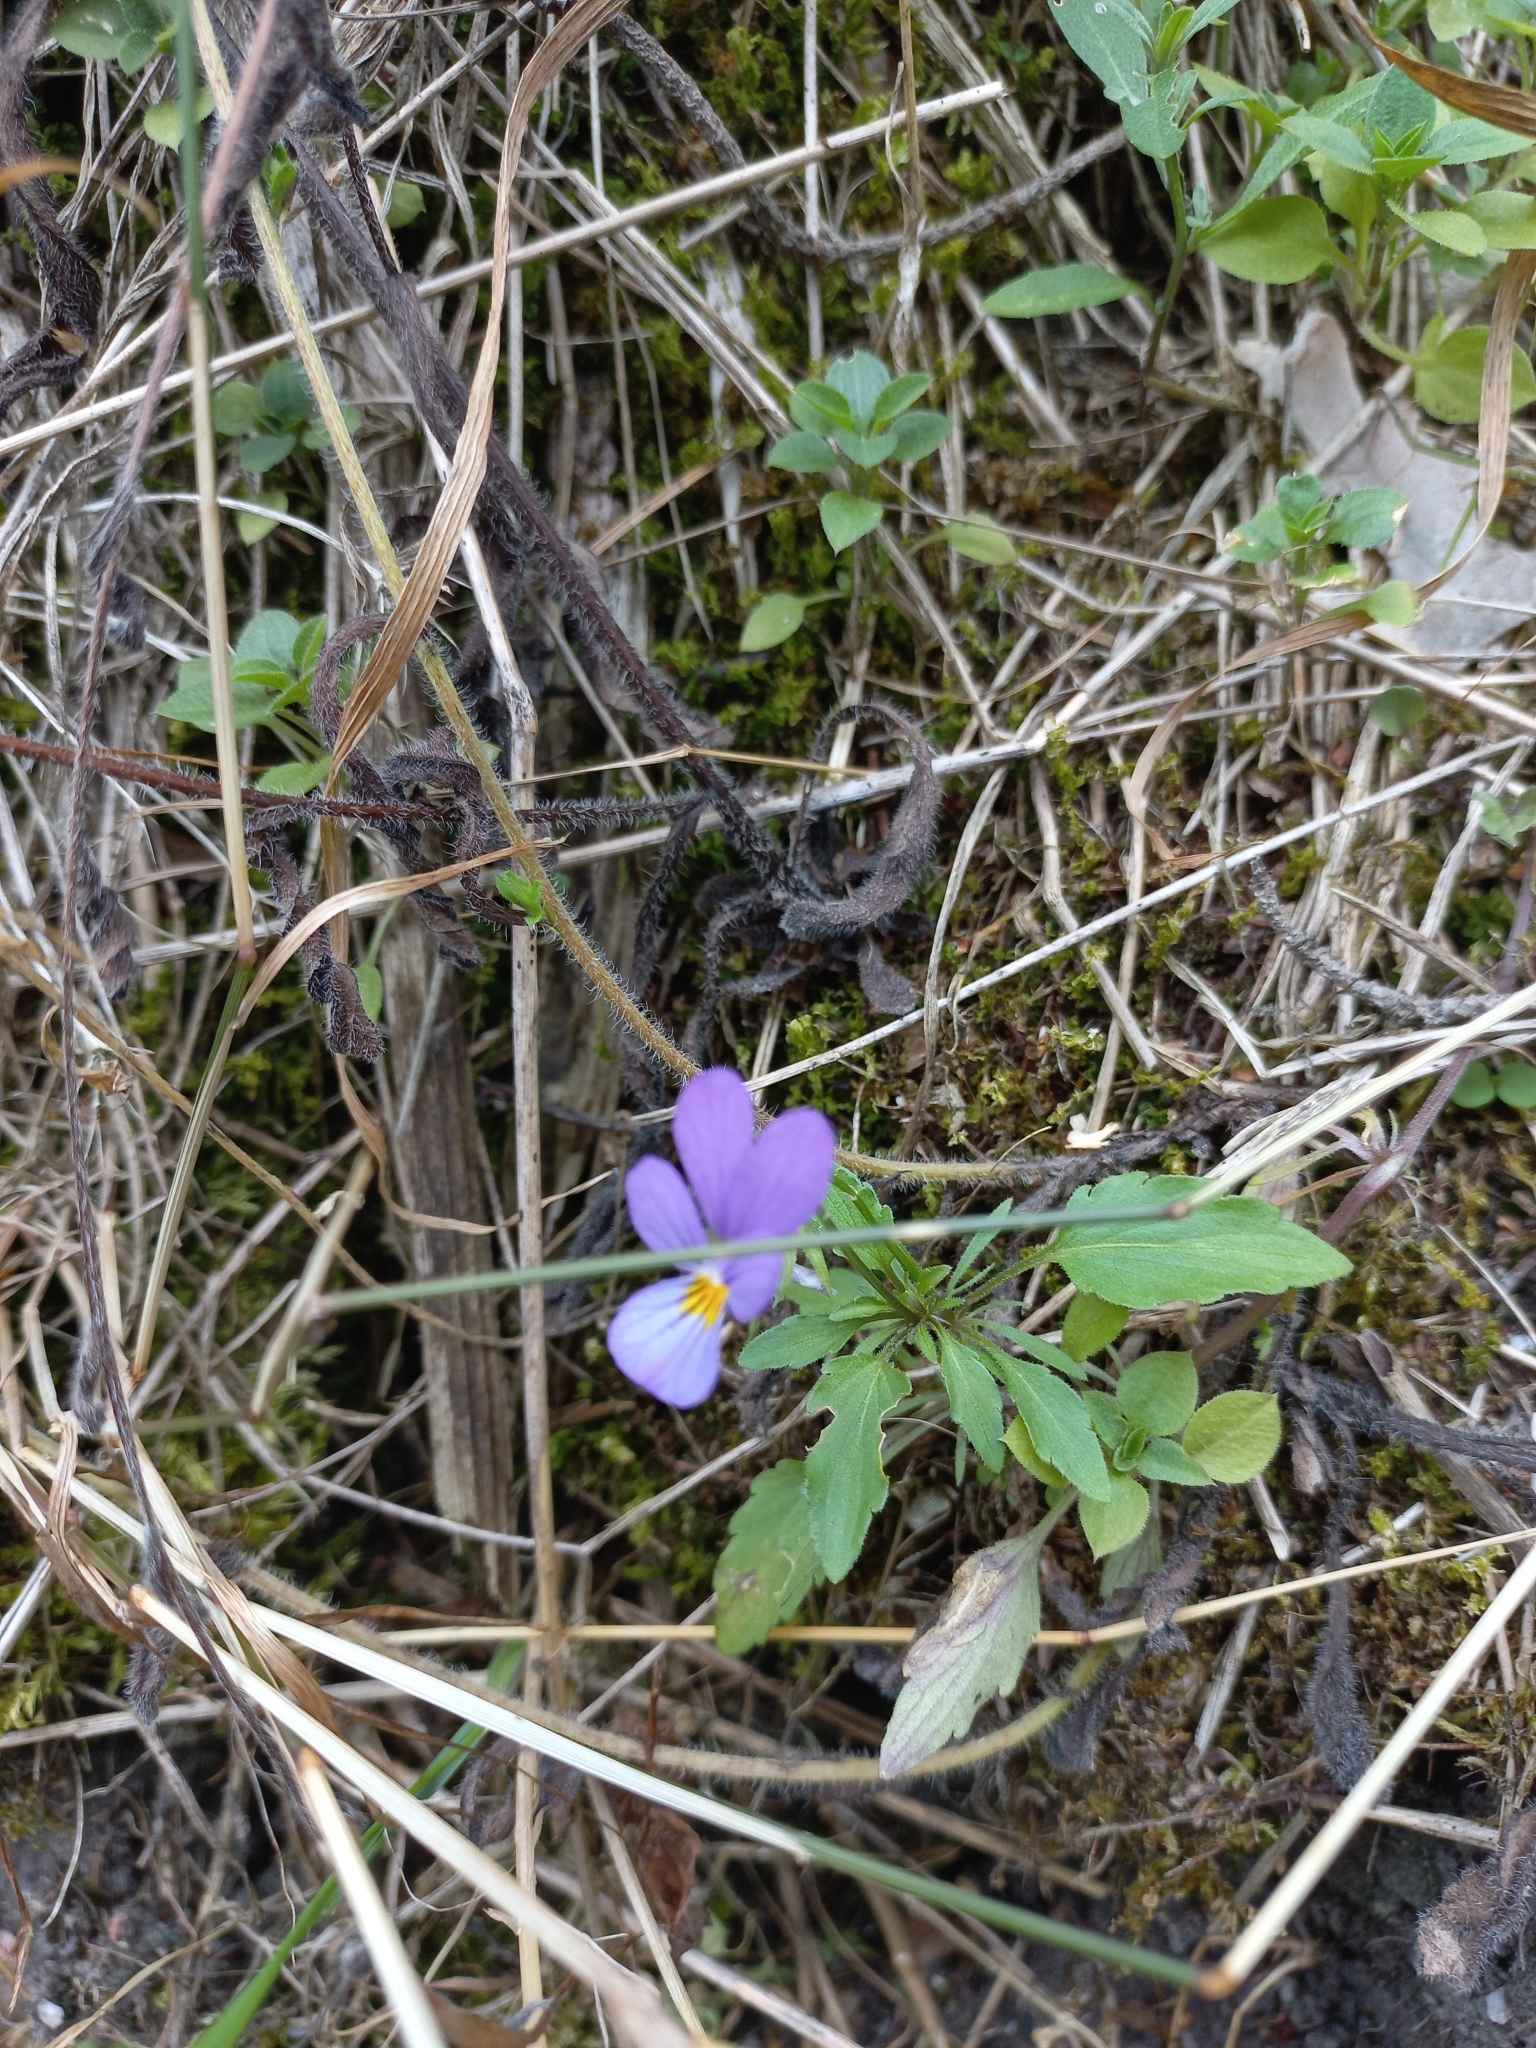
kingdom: Plantae
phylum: Tracheophyta
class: Magnoliopsida
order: Malpighiales
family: Violaceae
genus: Viola
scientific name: Viola tricolor
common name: Pansy
